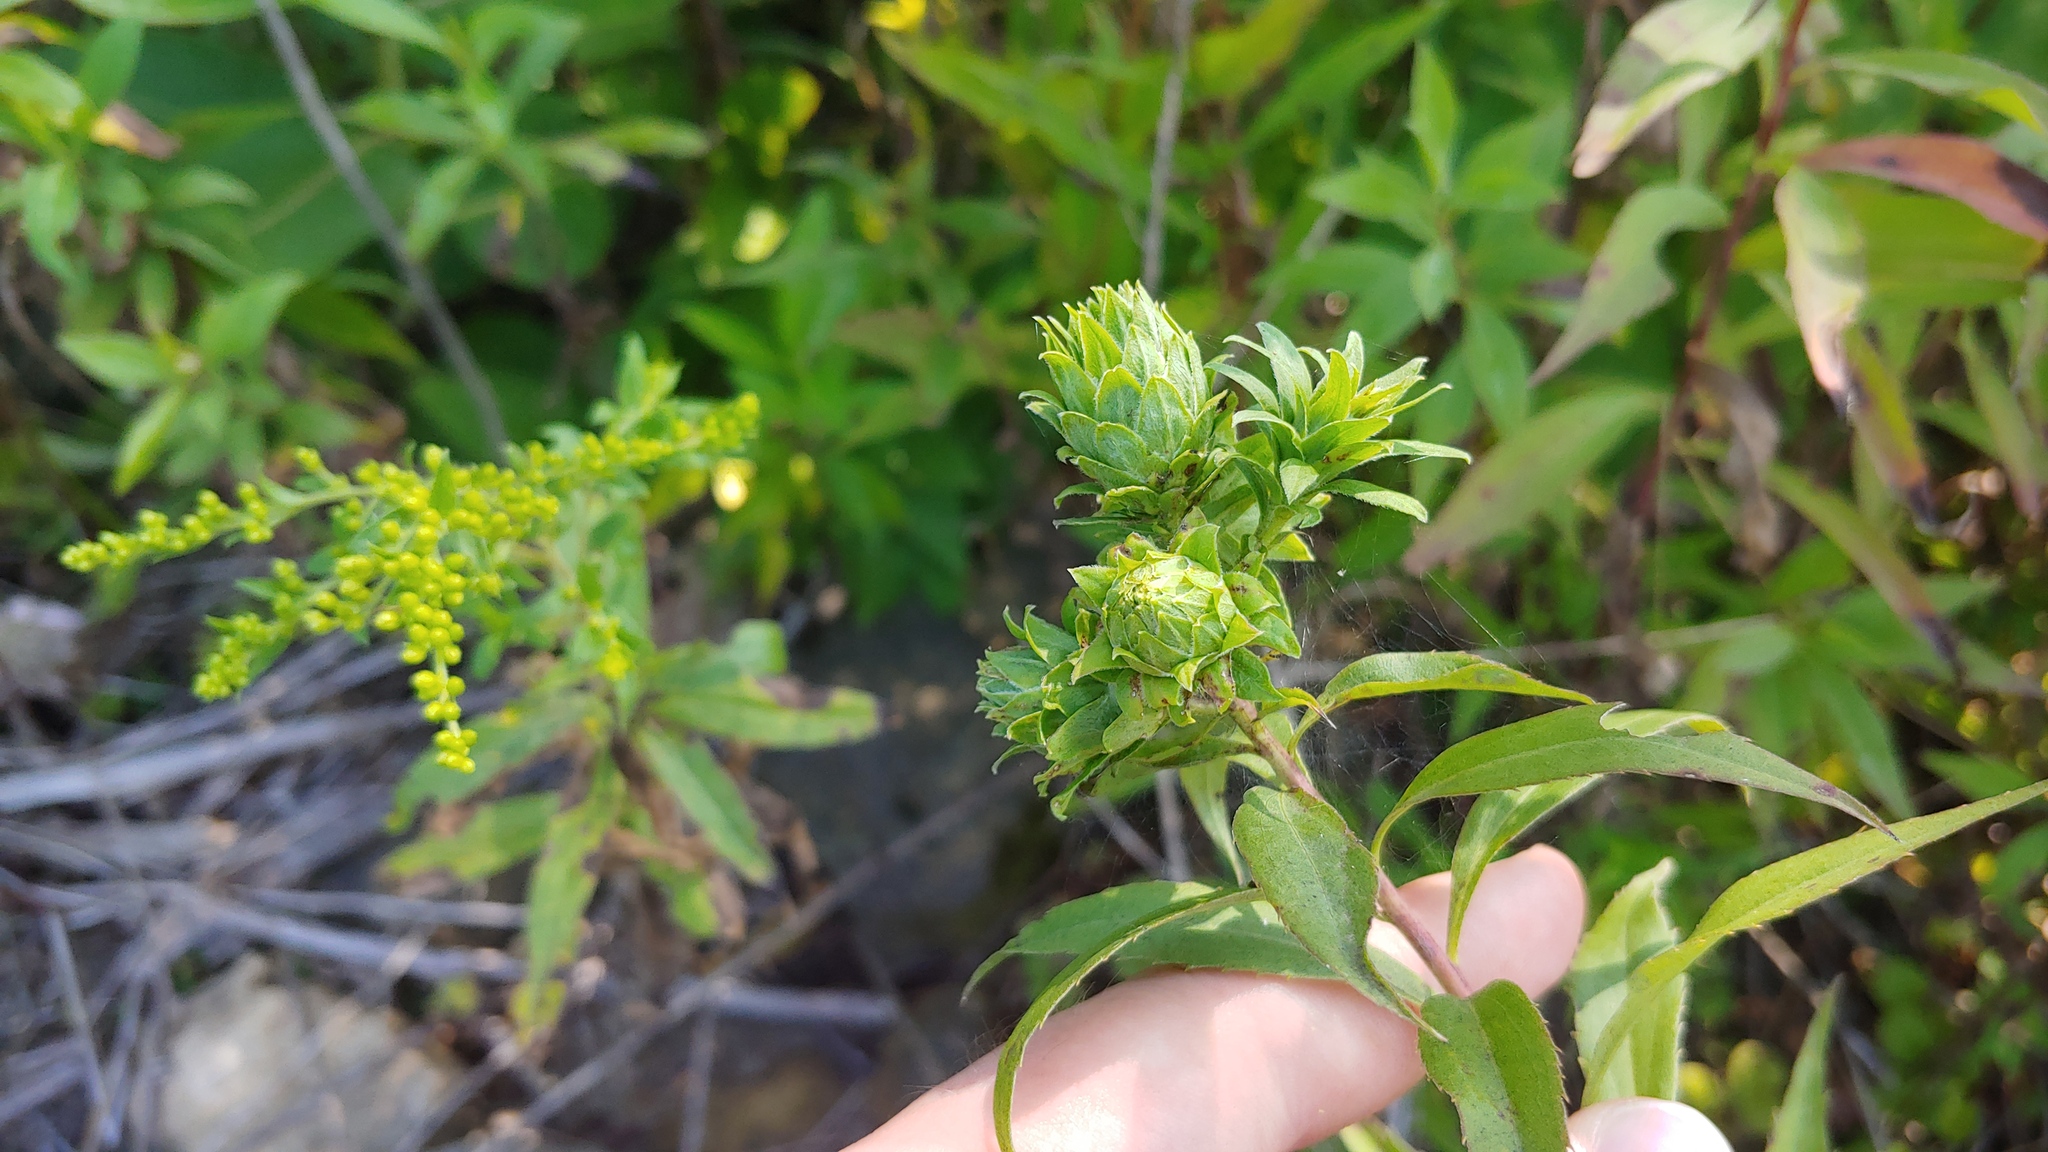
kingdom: Animalia
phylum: Arthropoda
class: Insecta
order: Diptera
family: Tephritidae
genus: Procecidochares
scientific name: Procecidochares atra
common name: Goldenrod brussels sprout gall fly
